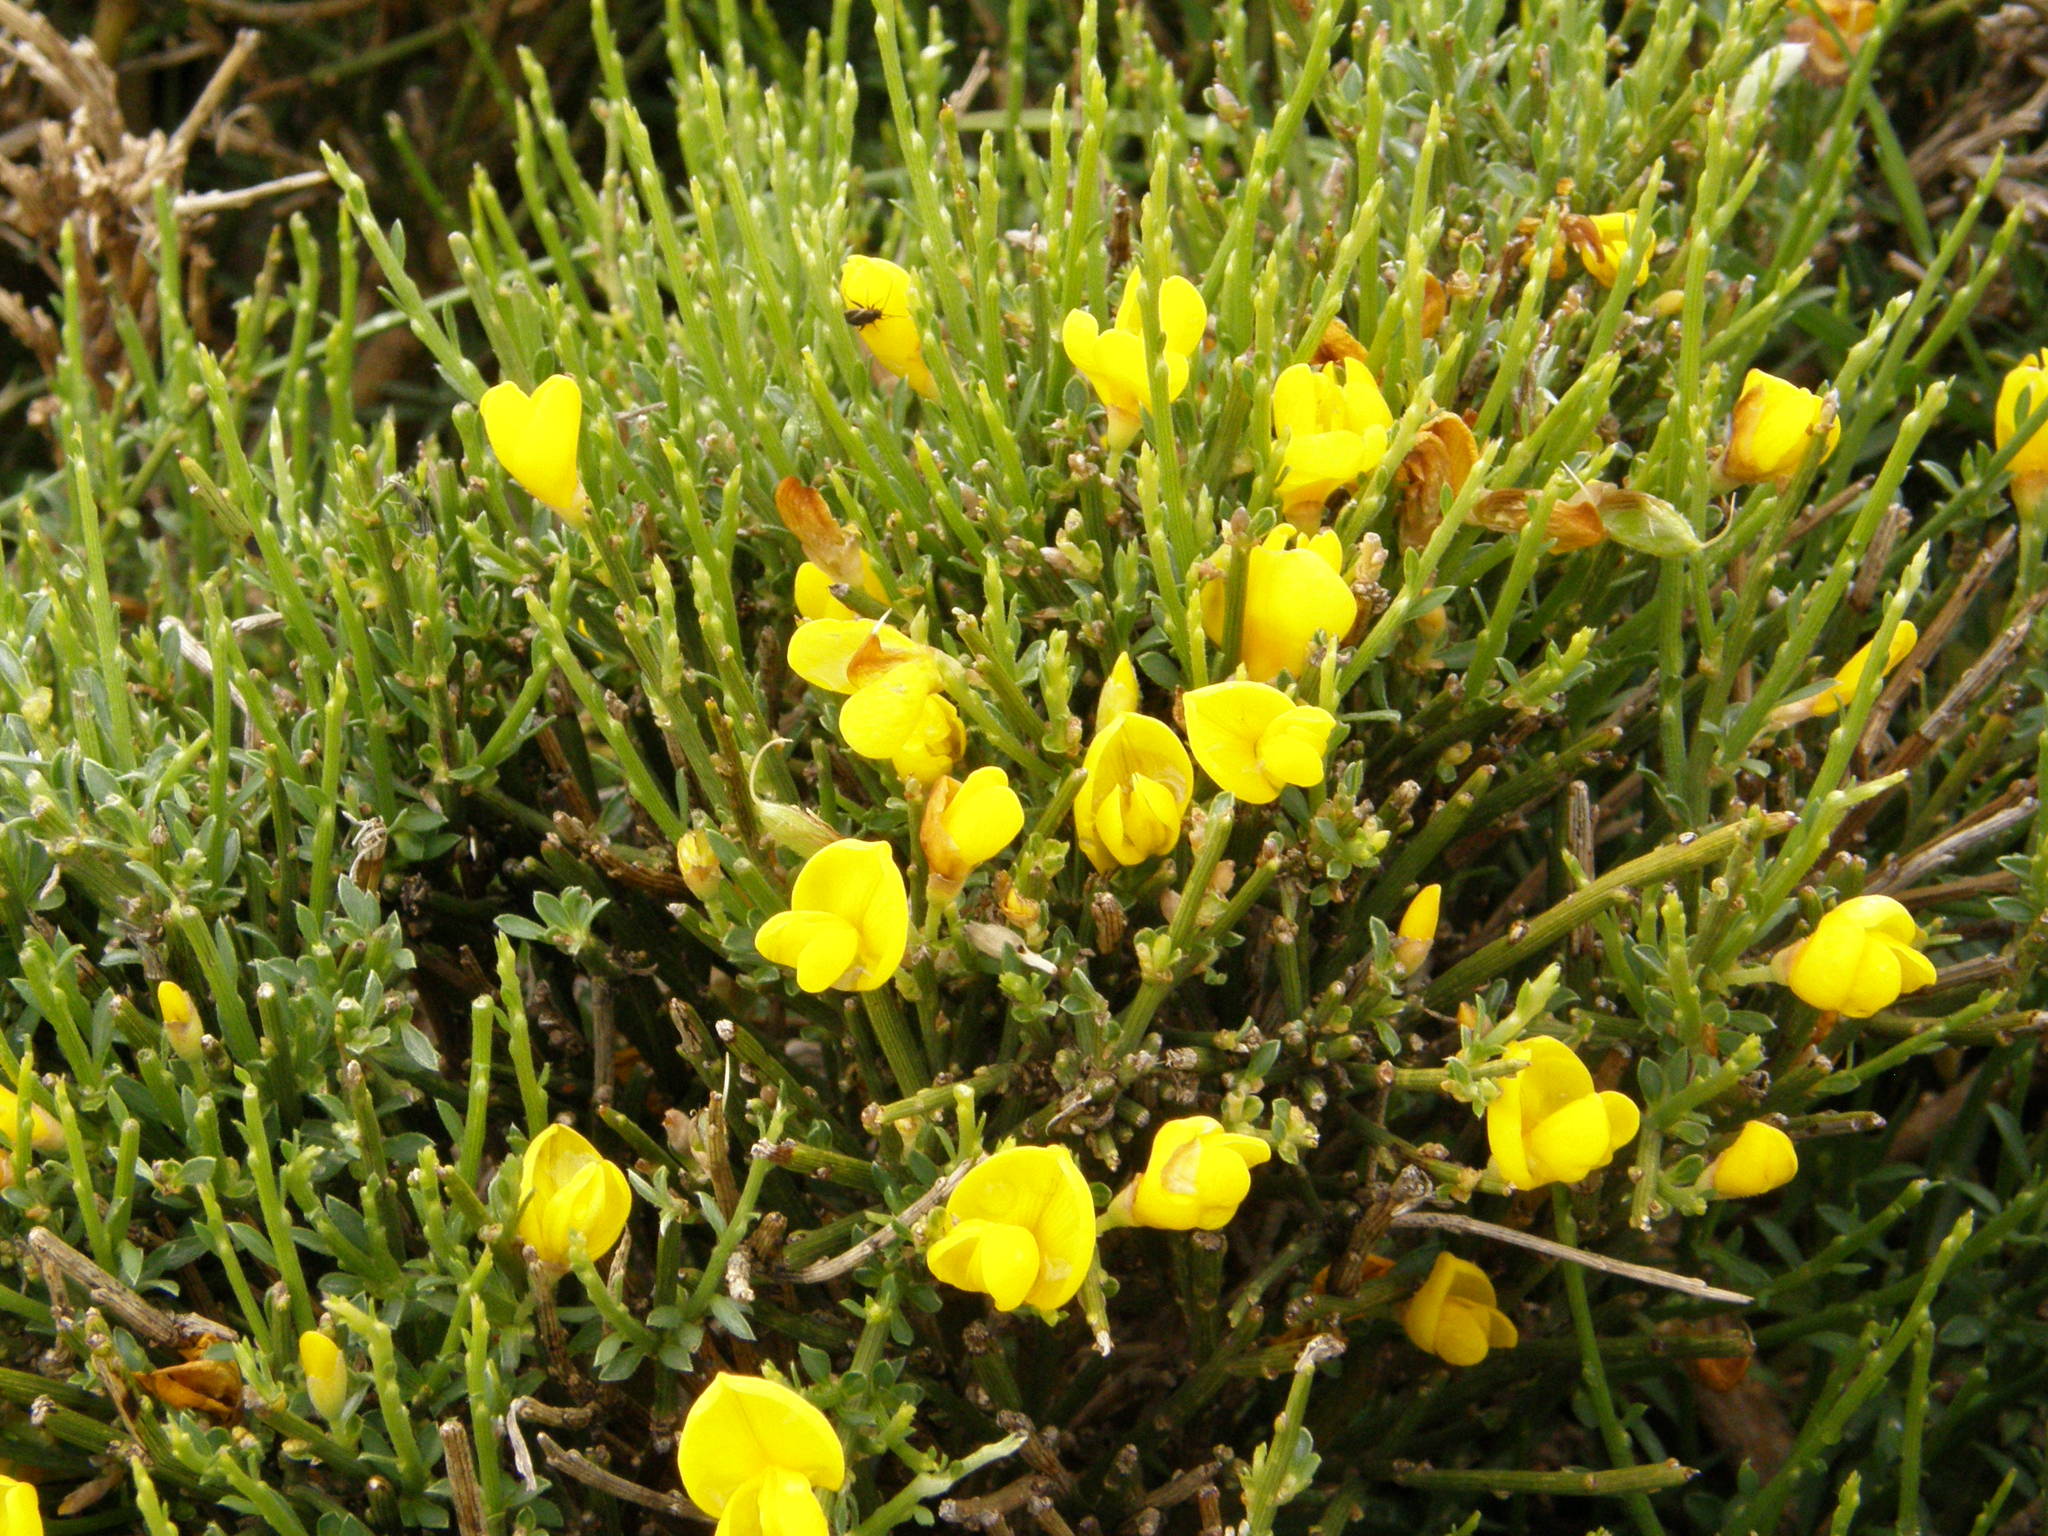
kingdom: Plantae
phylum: Tracheophyta
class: Magnoliopsida
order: Fabales
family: Fabaceae
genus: Cytisus
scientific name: Cytisus balansae
